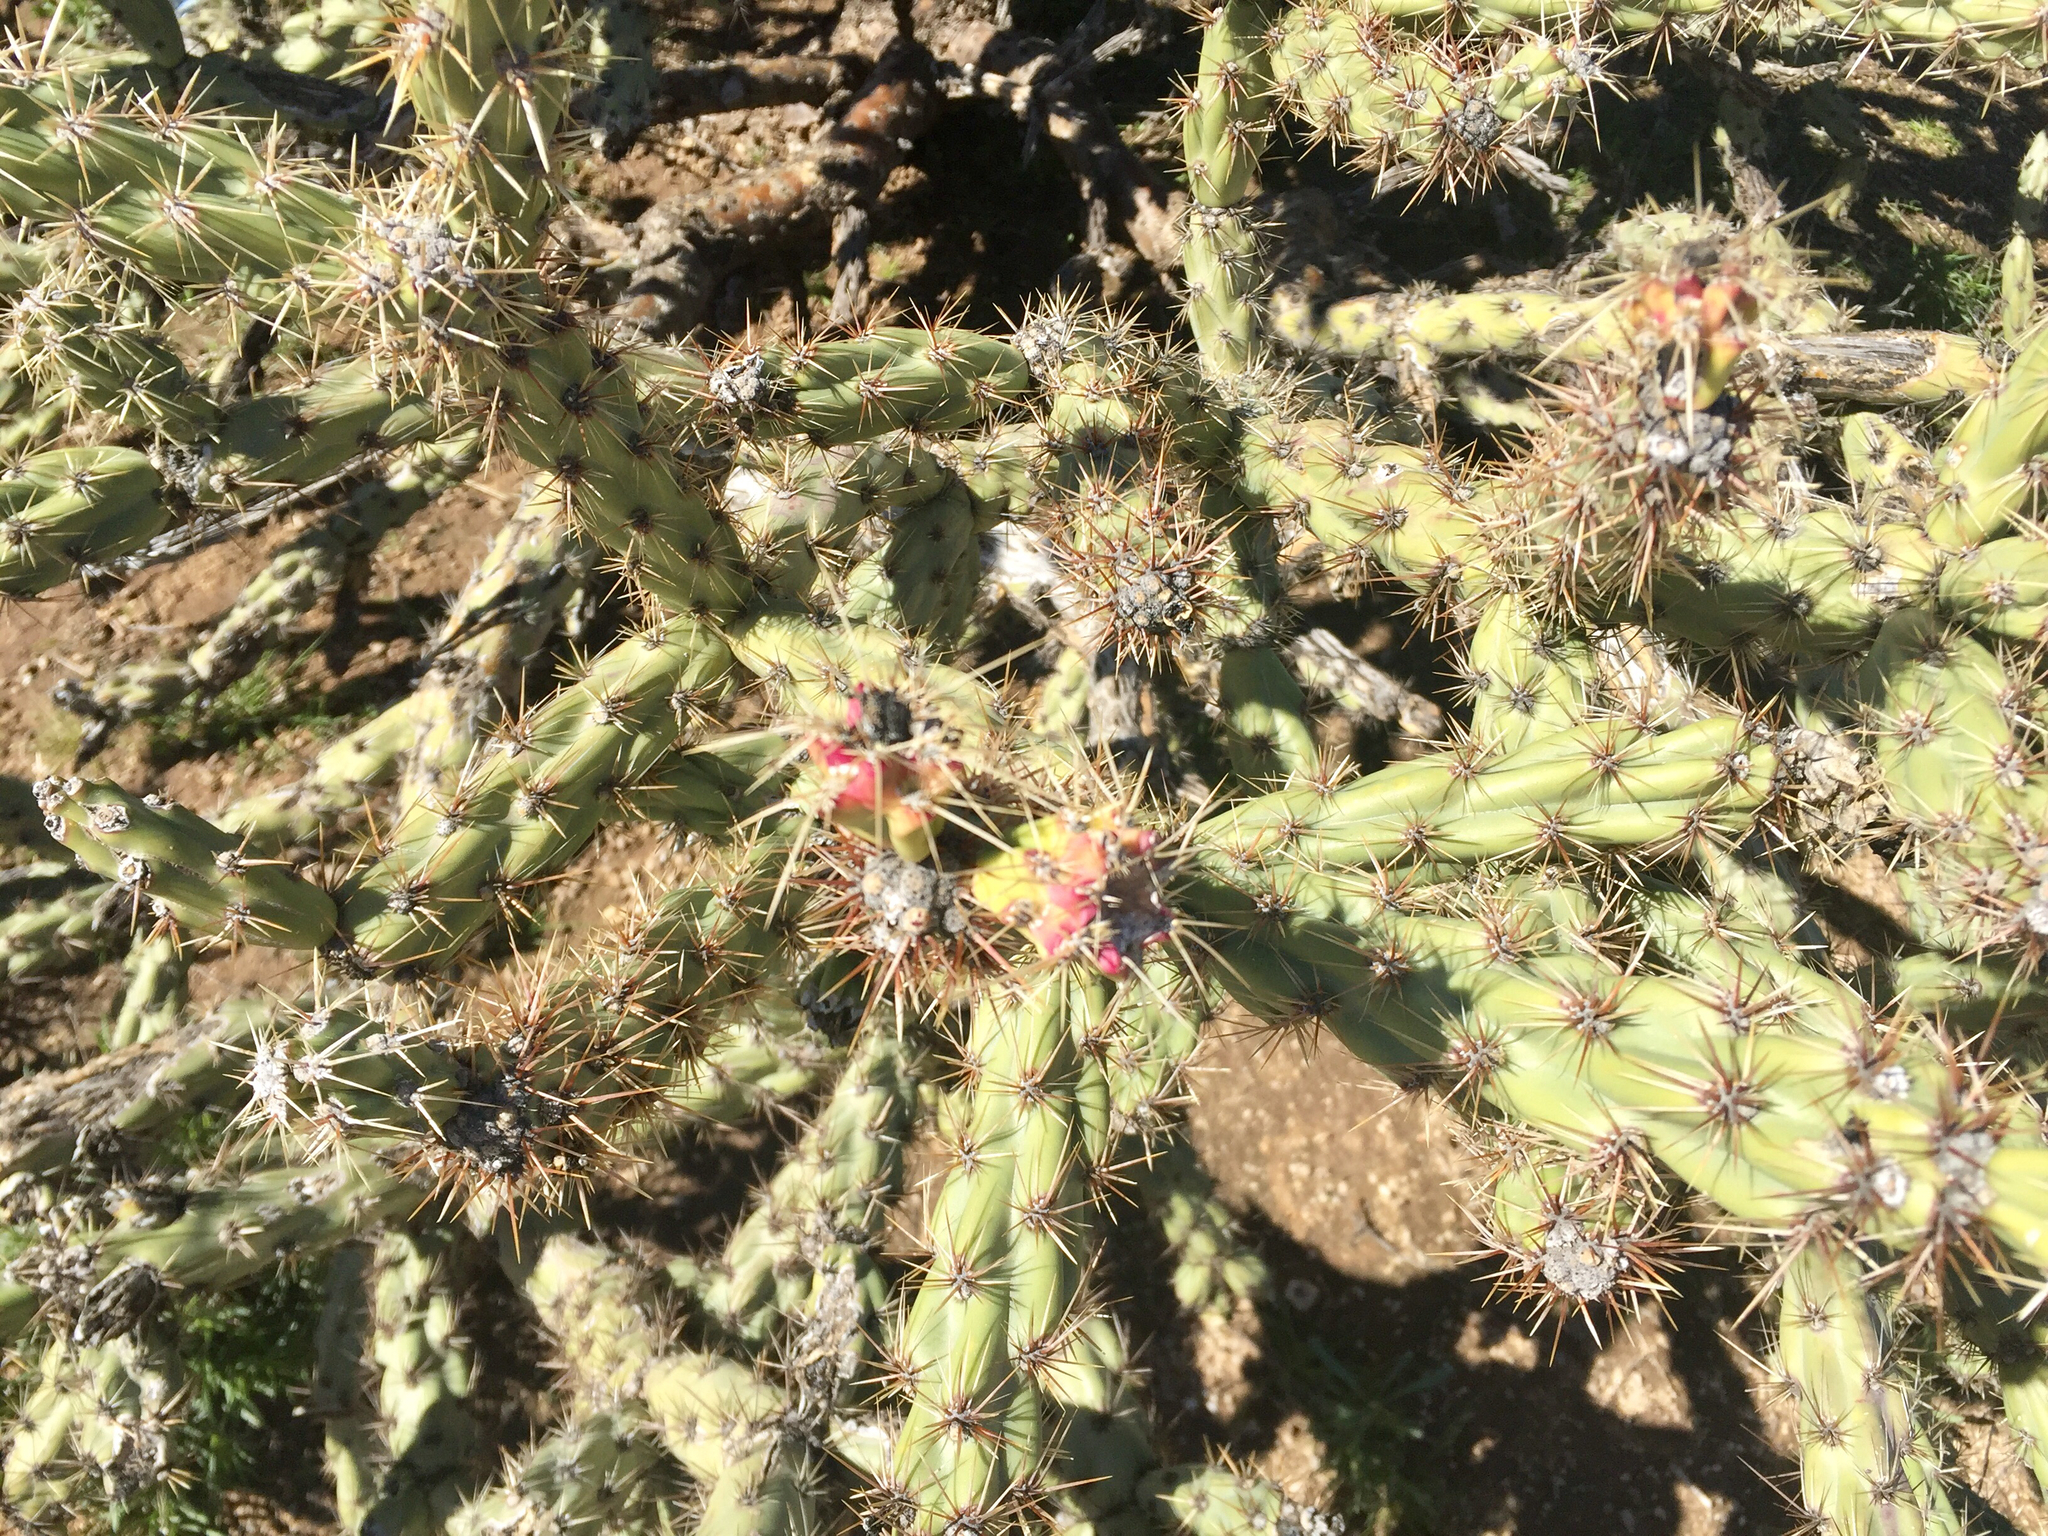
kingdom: Plantae
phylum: Tracheophyta
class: Magnoliopsida
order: Caryophyllales
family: Cactaceae
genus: Cylindropuntia
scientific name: Cylindropuntia acanthocarpa
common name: Buckhorn cholla
